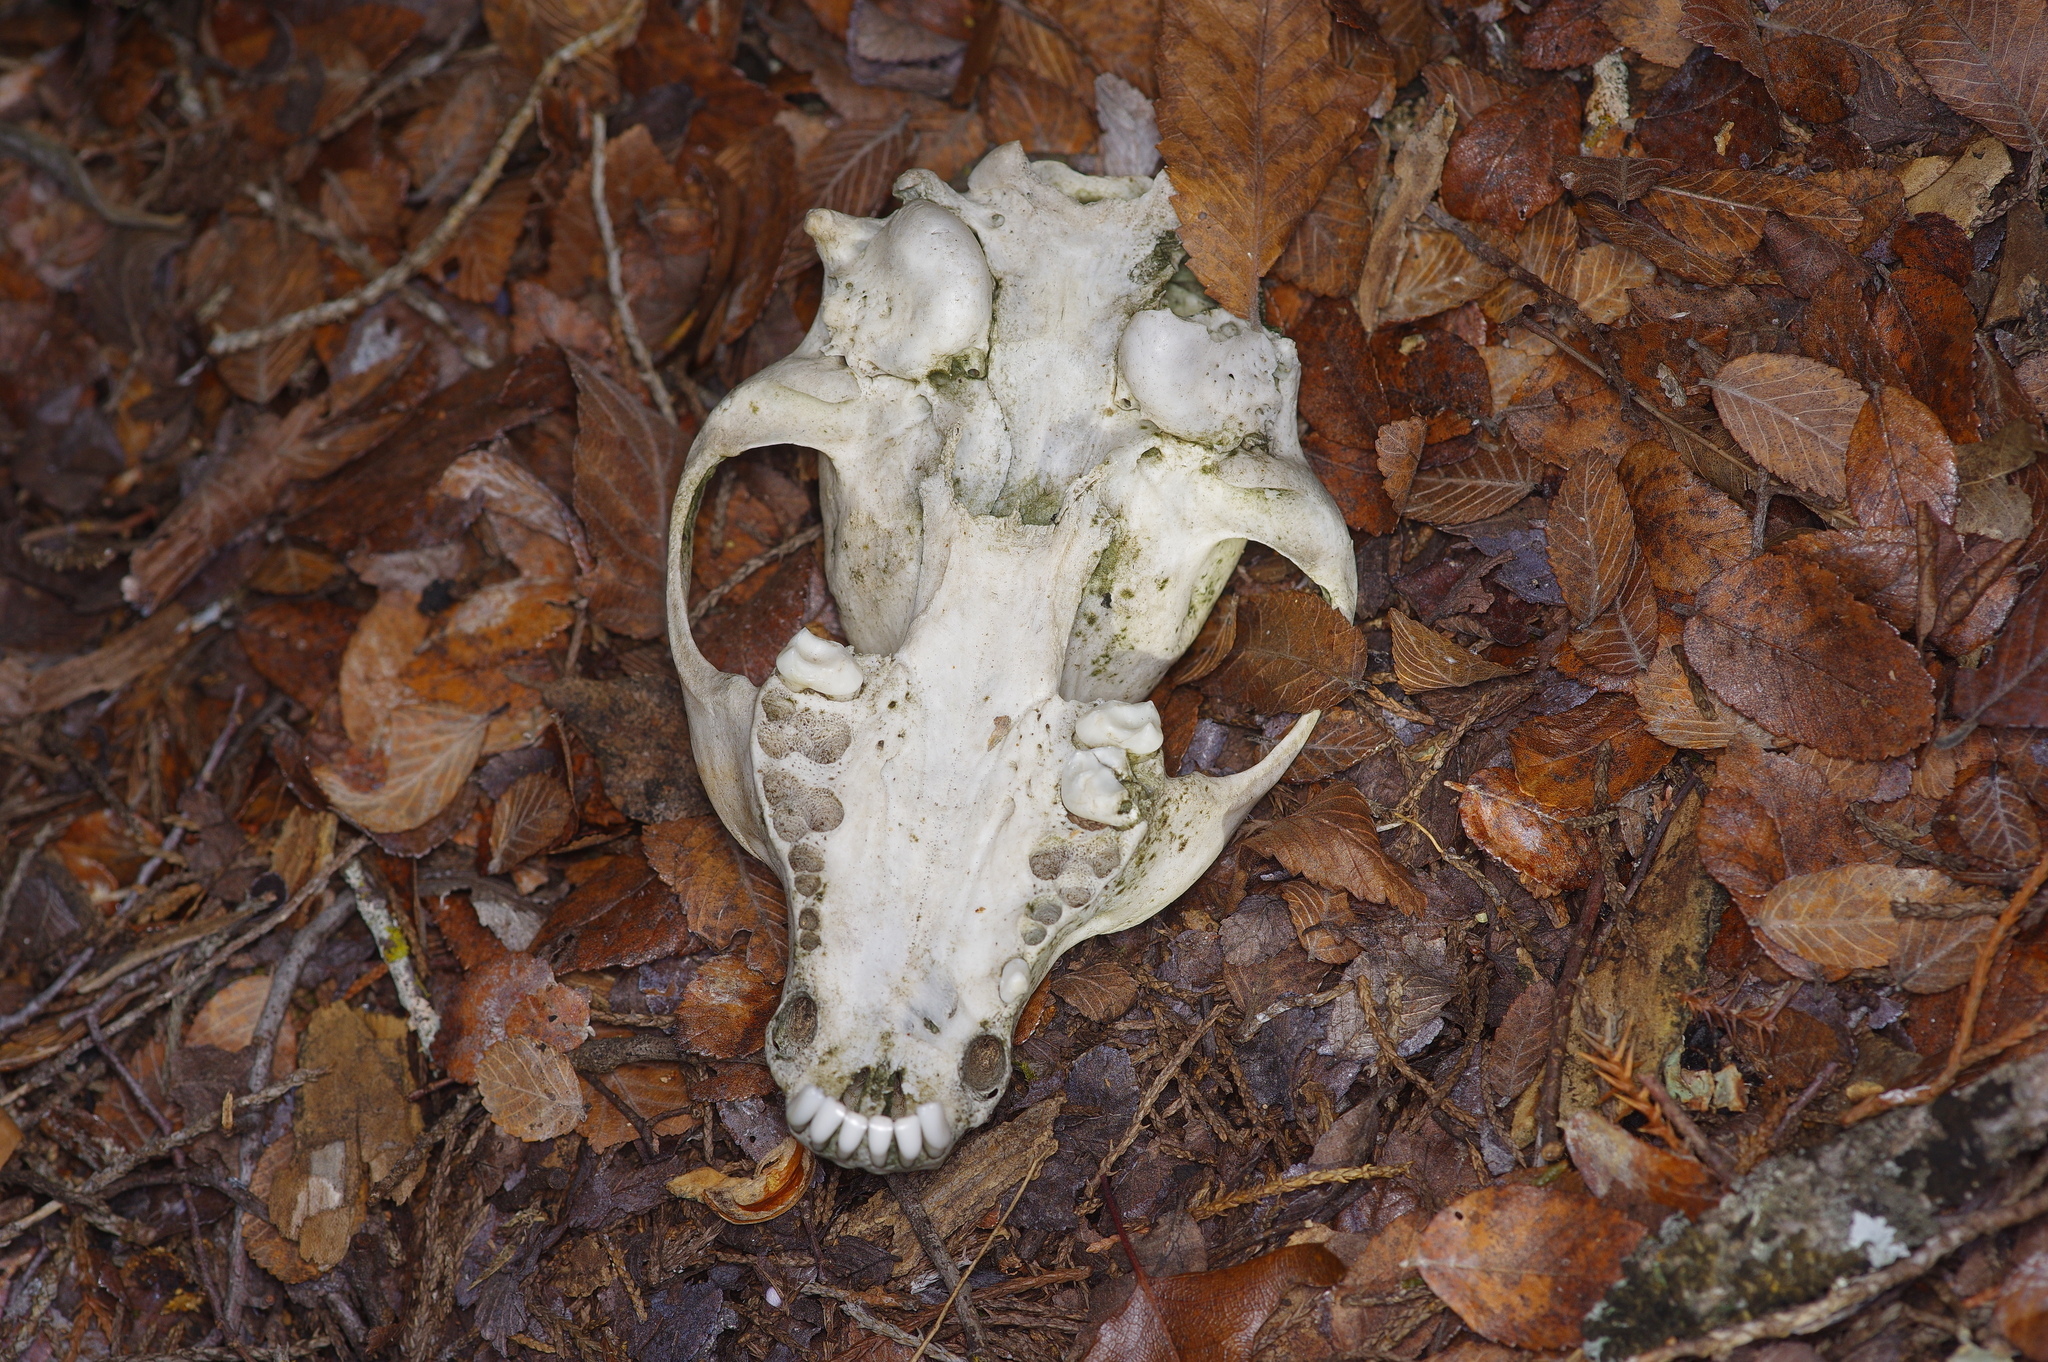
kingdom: Animalia
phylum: Chordata
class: Mammalia
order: Carnivora
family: Procyonidae
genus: Procyon
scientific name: Procyon lotor
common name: Raccoon
